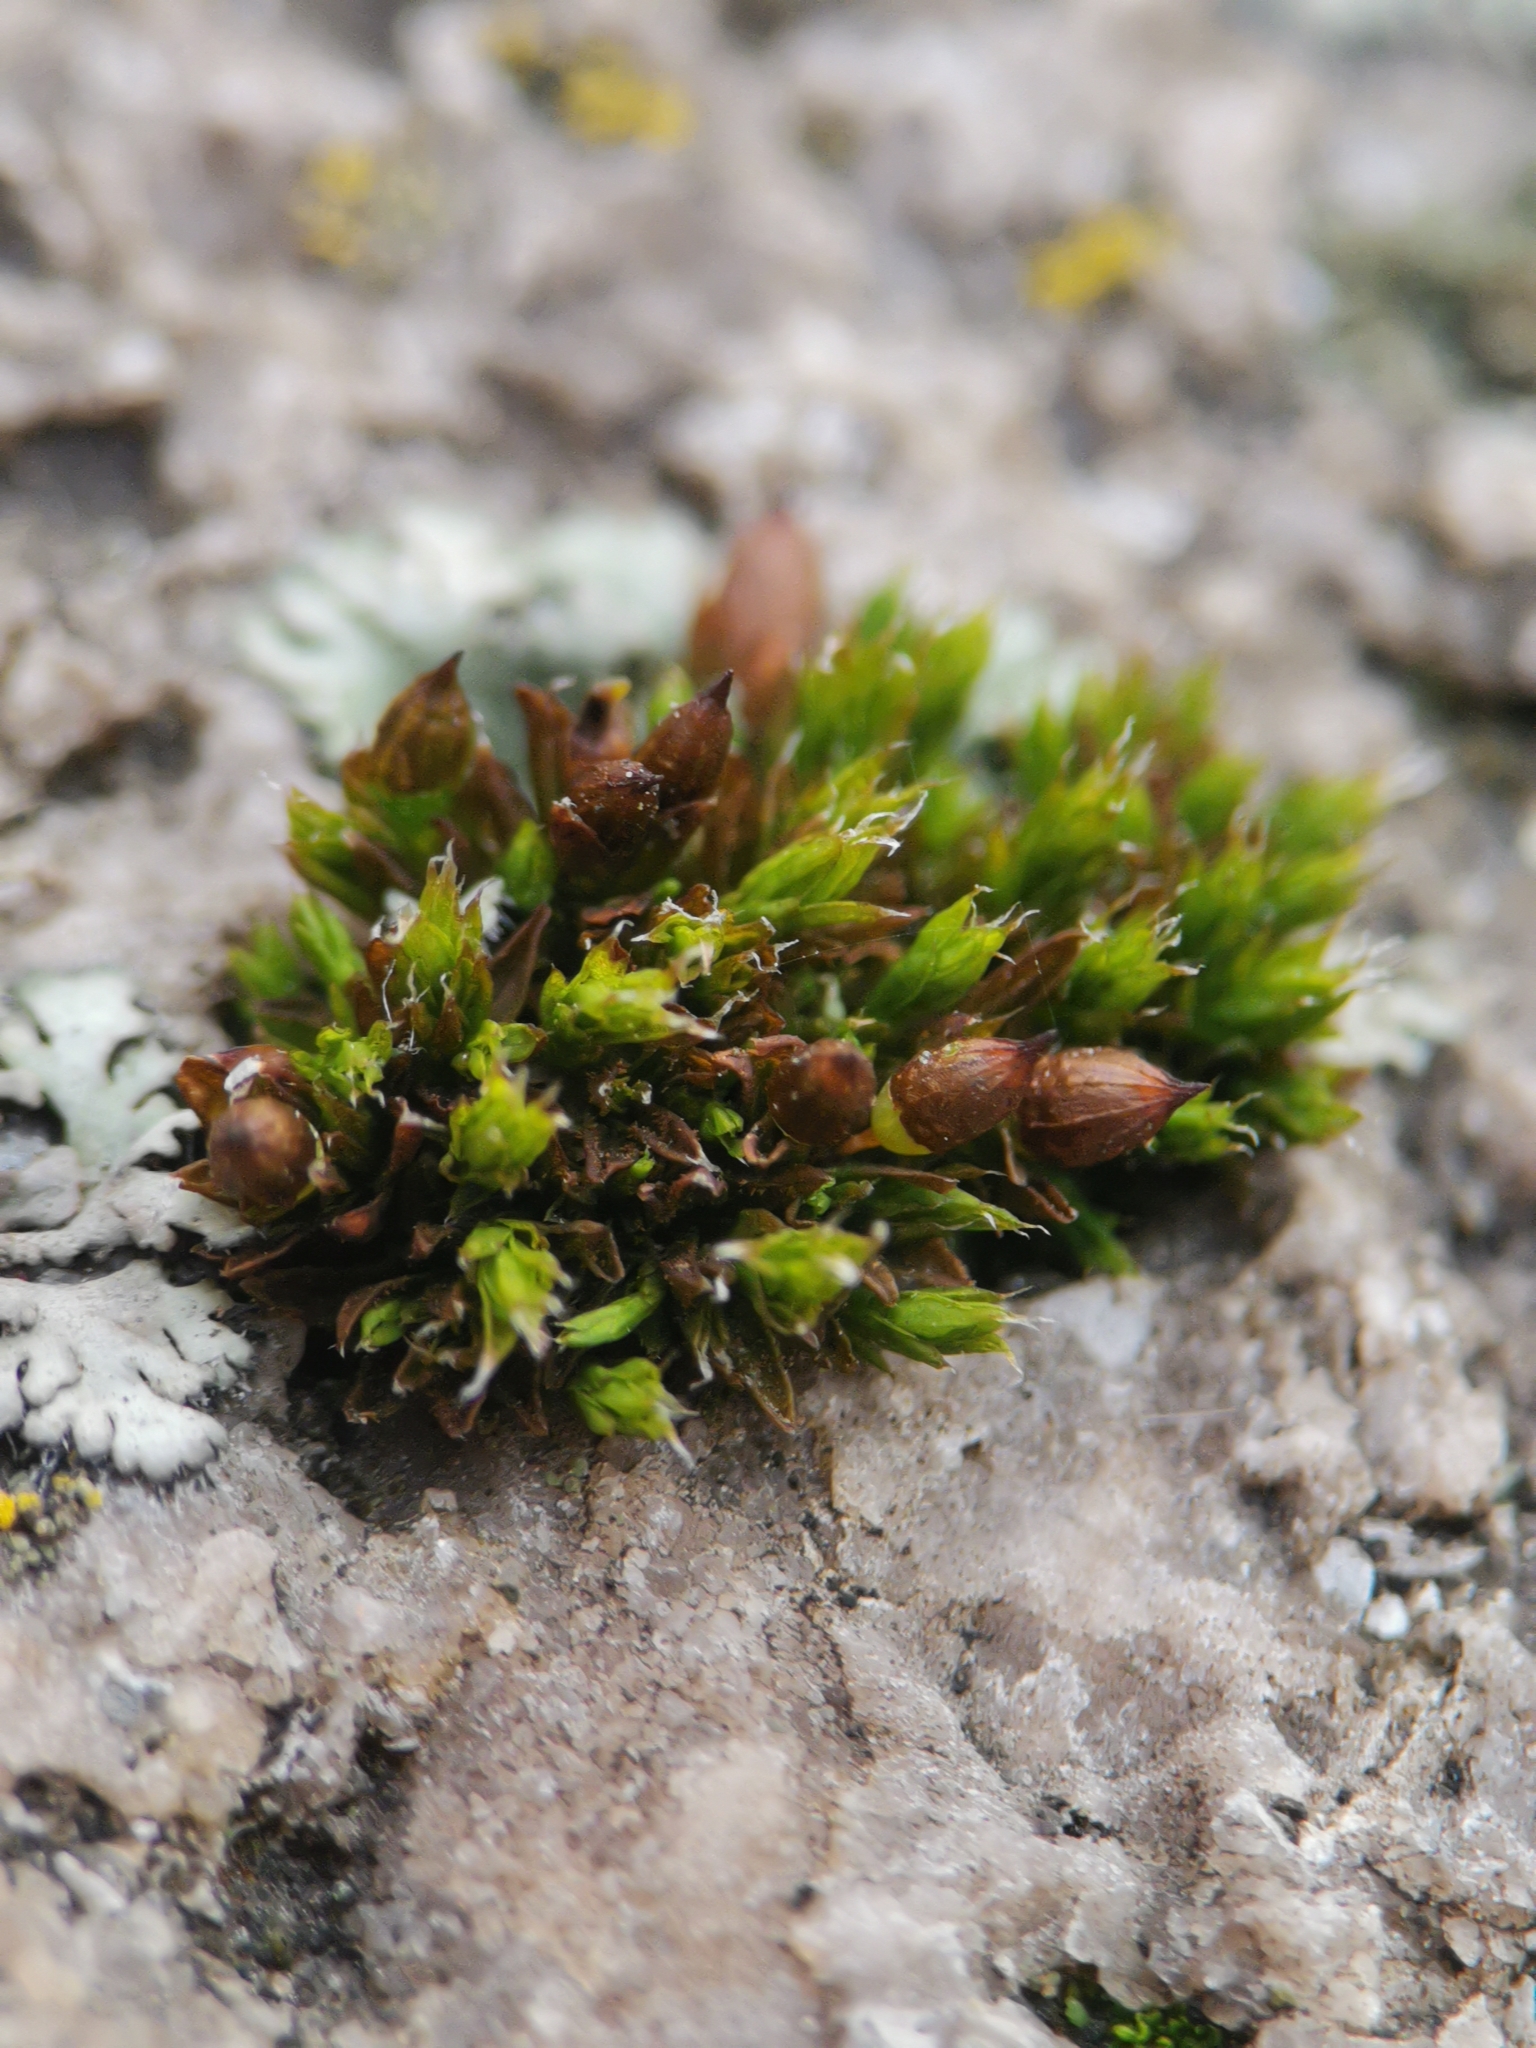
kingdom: Plantae
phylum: Bryophyta
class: Bryopsida
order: Orthotrichales
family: Orthotrichaceae
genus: Orthotrichum
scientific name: Orthotrichum diaphanum
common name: White-tipped bristle-moss
